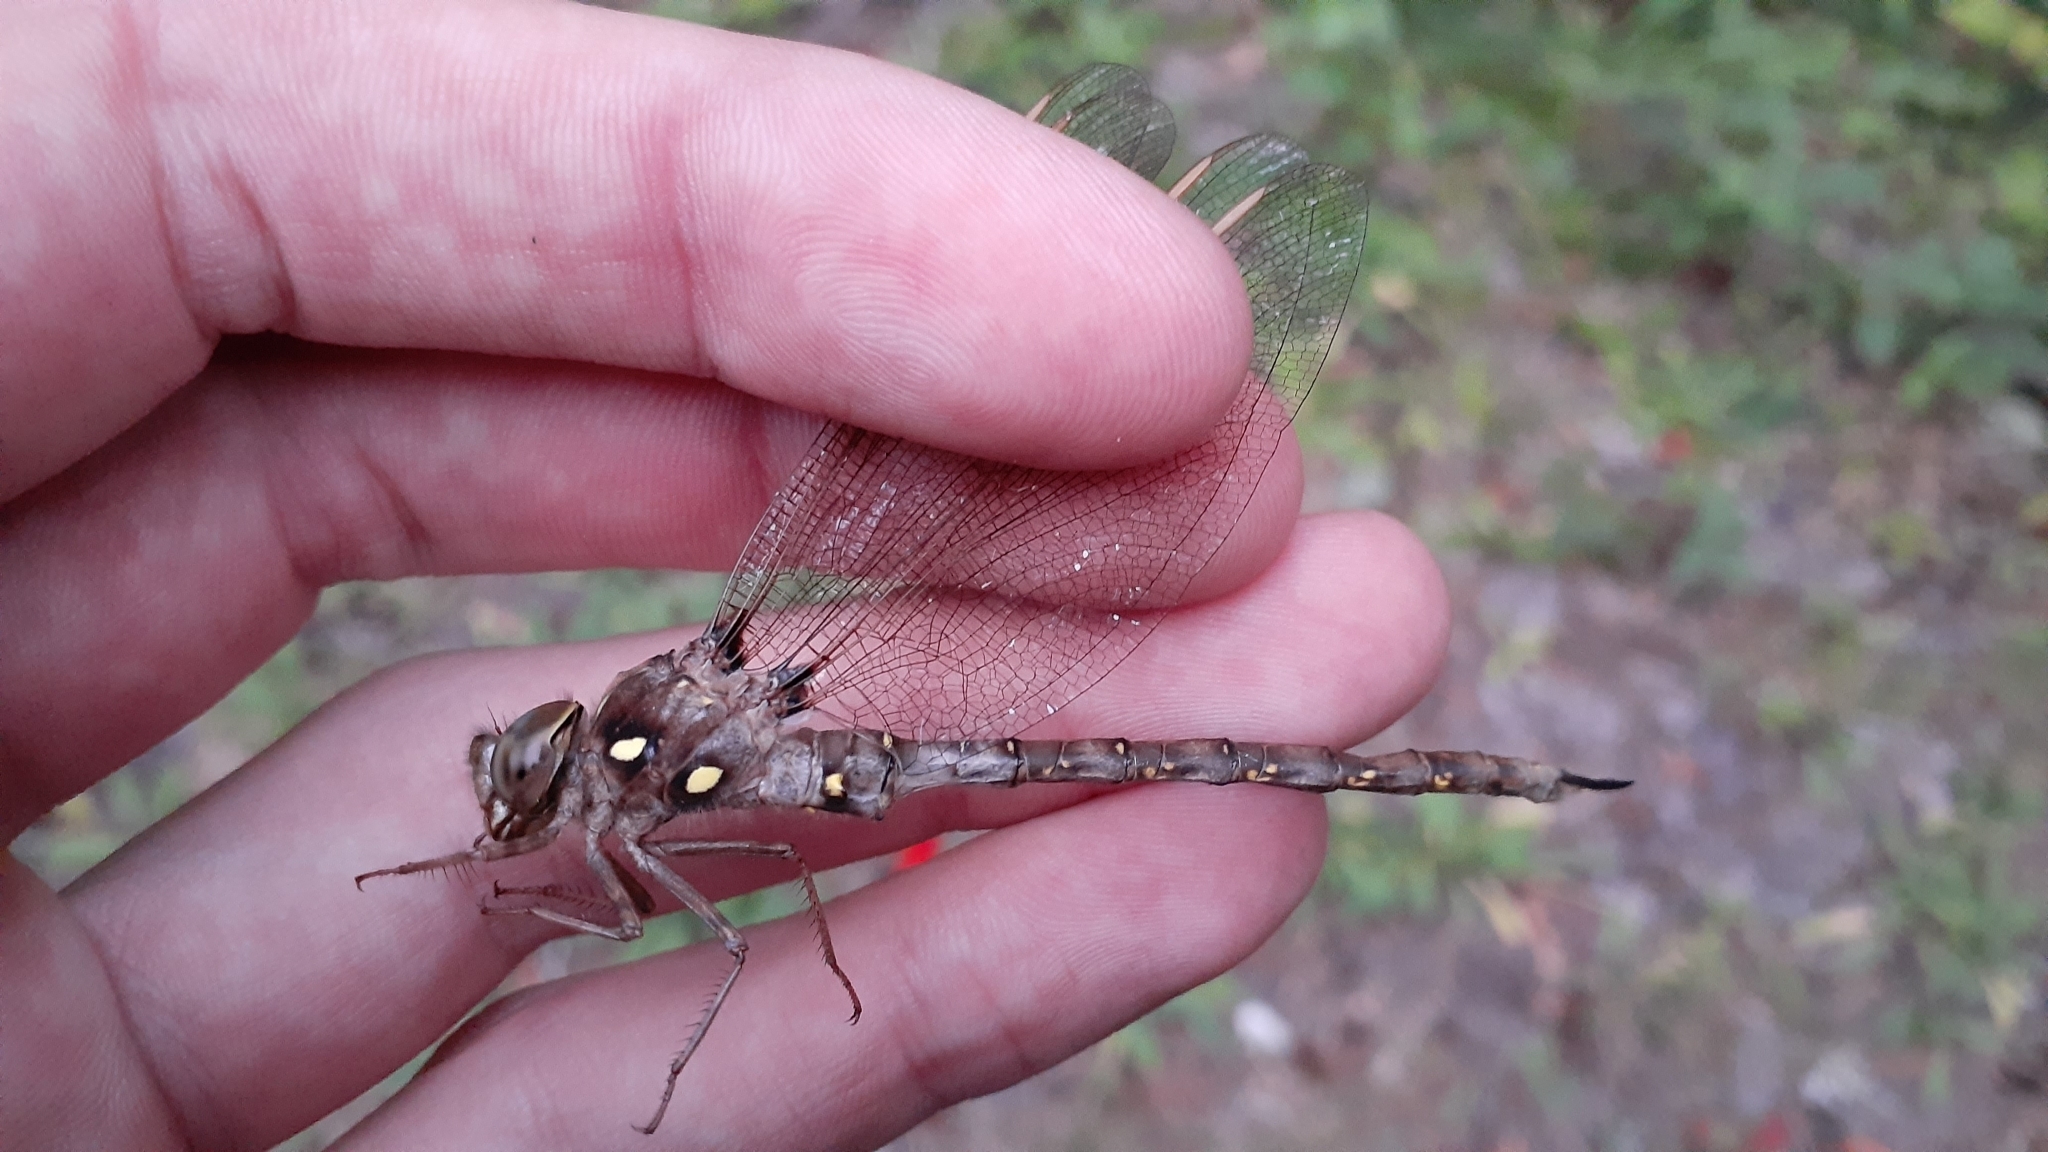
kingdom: Animalia
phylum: Arthropoda
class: Insecta
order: Odonata
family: Aeshnidae
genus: Boyeria
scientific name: Boyeria vinosa
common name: Fawn darner
